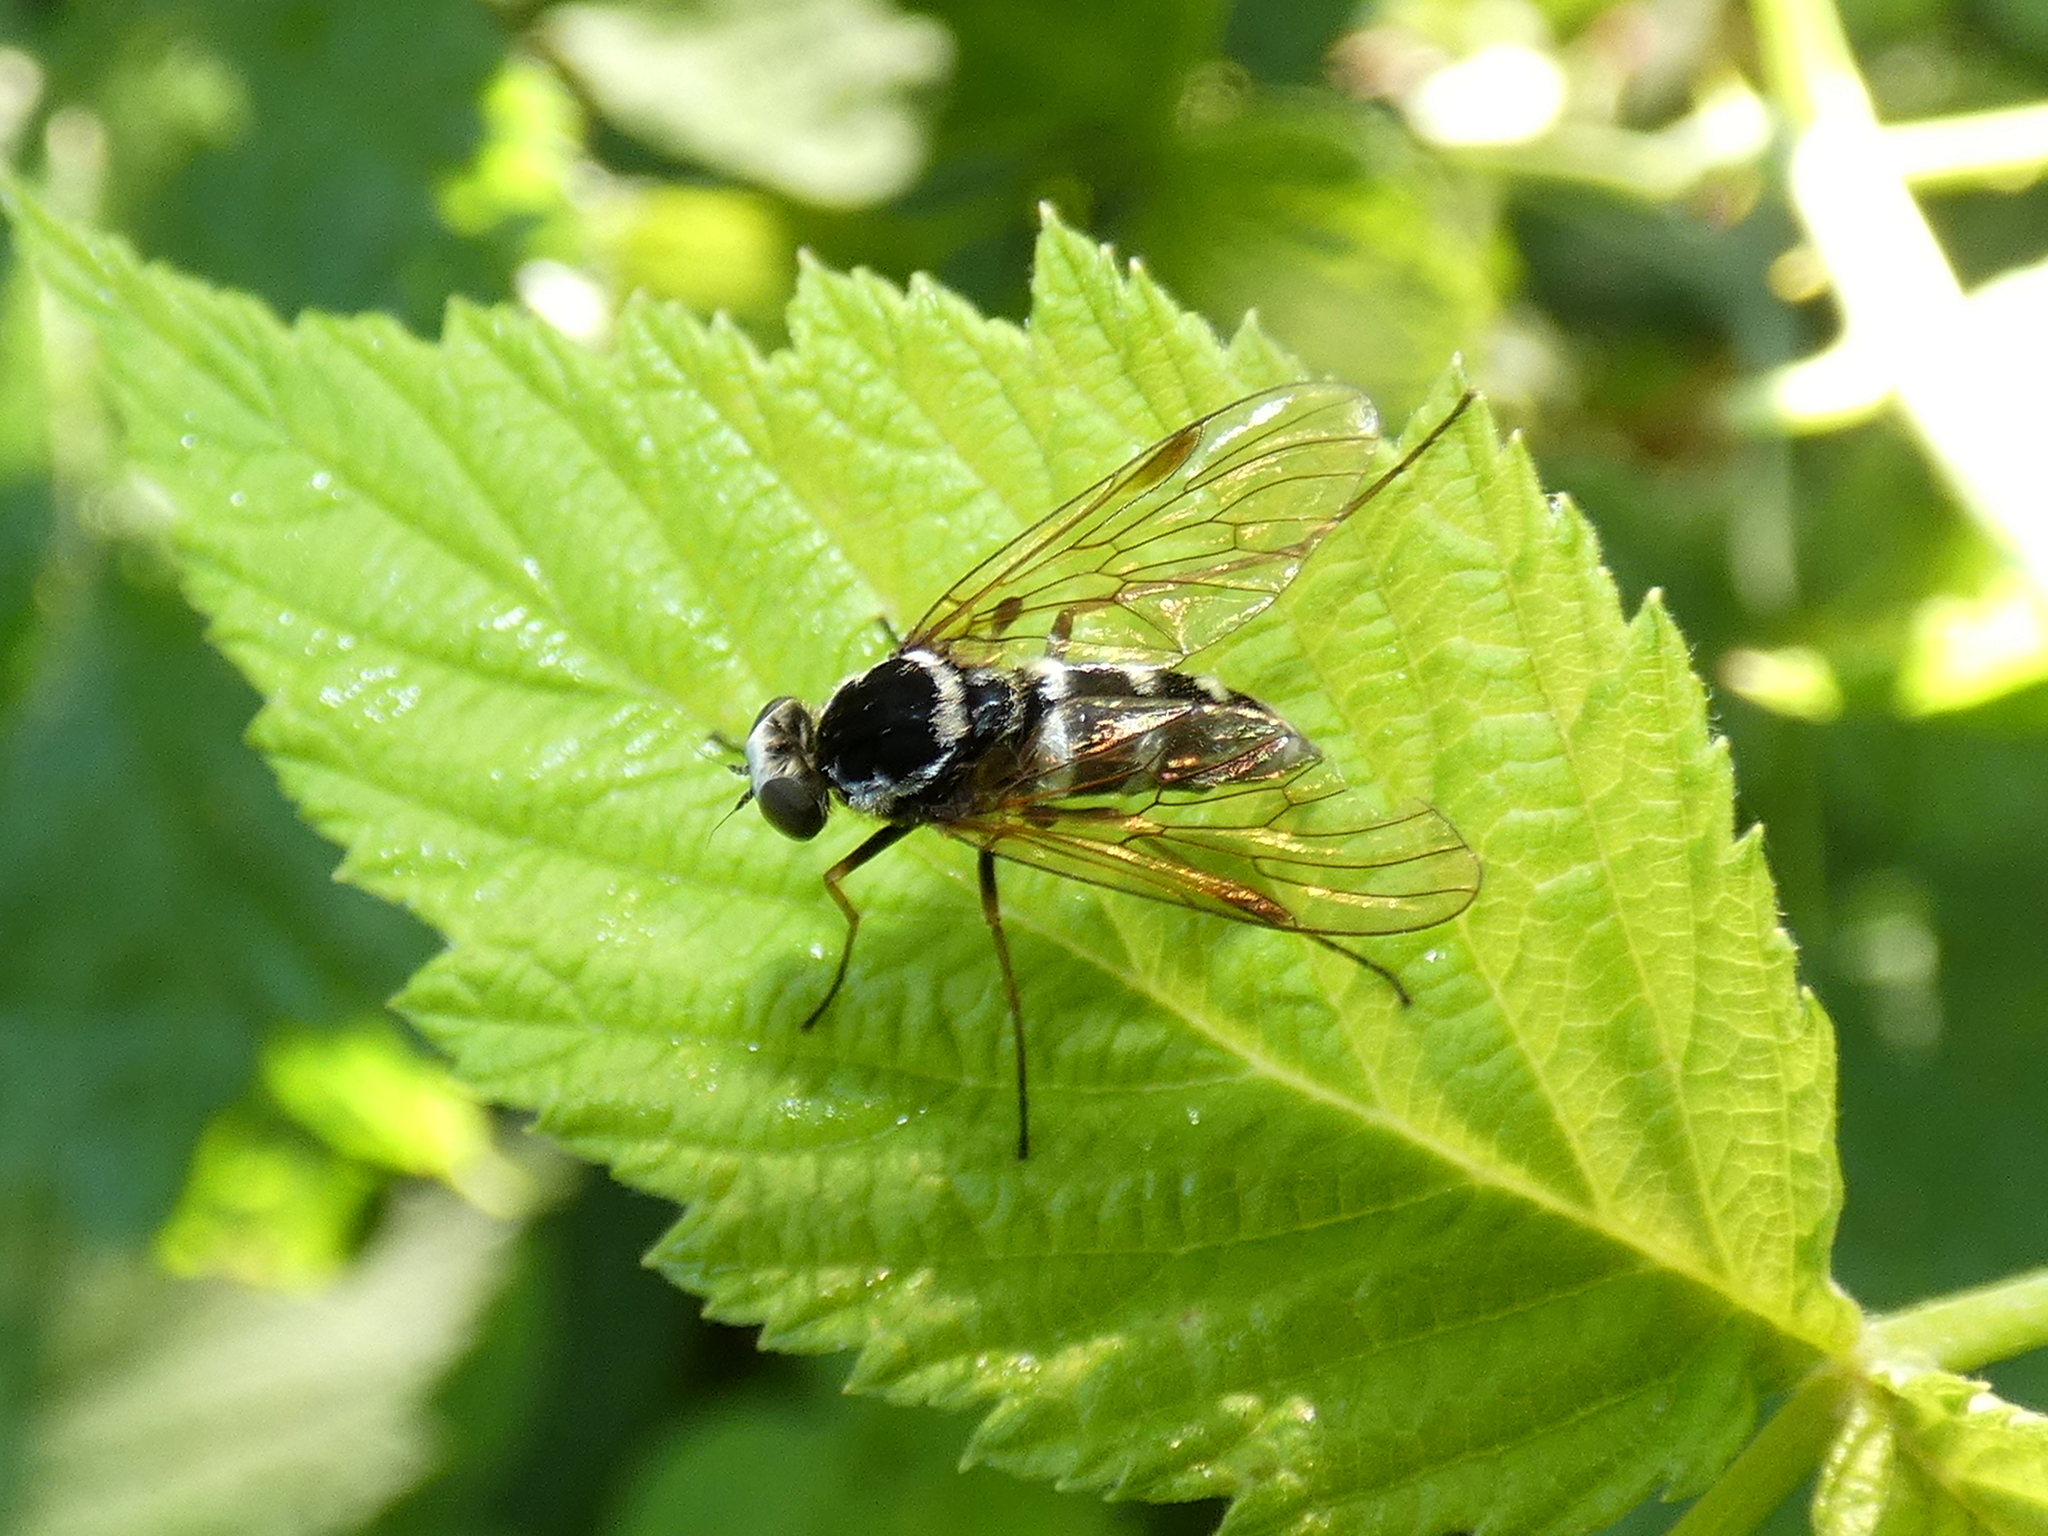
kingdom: Animalia
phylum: Arthropoda
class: Insecta
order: Diptera
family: Rhagionidae
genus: Chrysopilus
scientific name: Chrysopilus fasciatus
